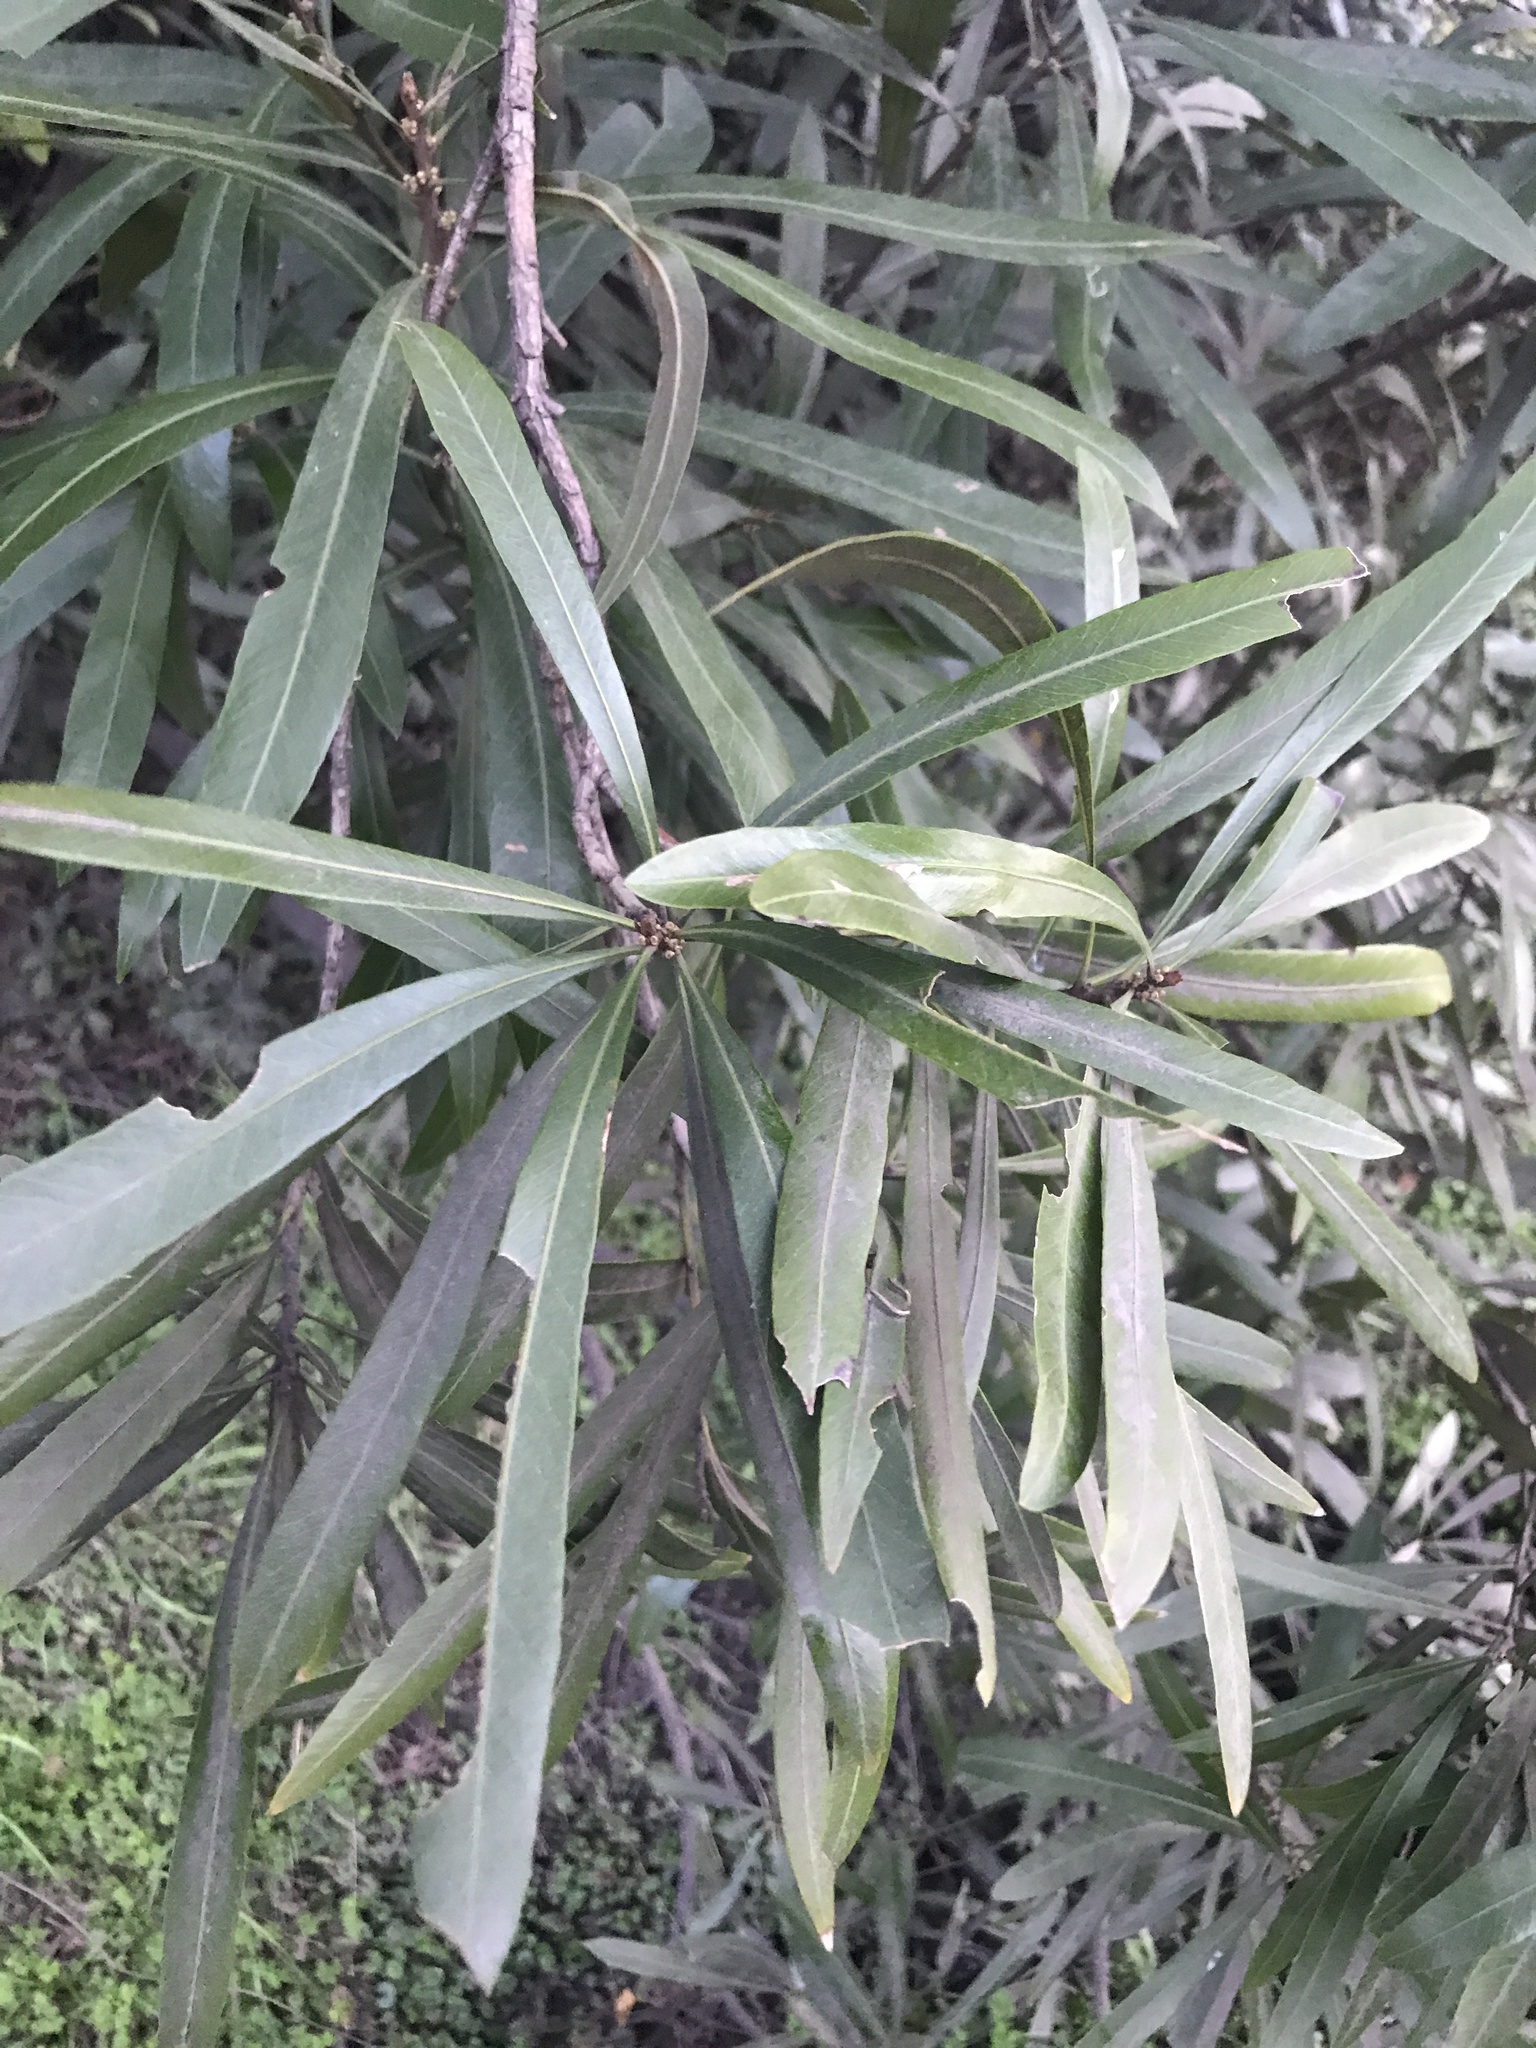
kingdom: Plantae
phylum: Tracheophyta
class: Magnoliopsida
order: Ericales
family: Sapotaceae
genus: Labatia
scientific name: Labatia salicifolia
